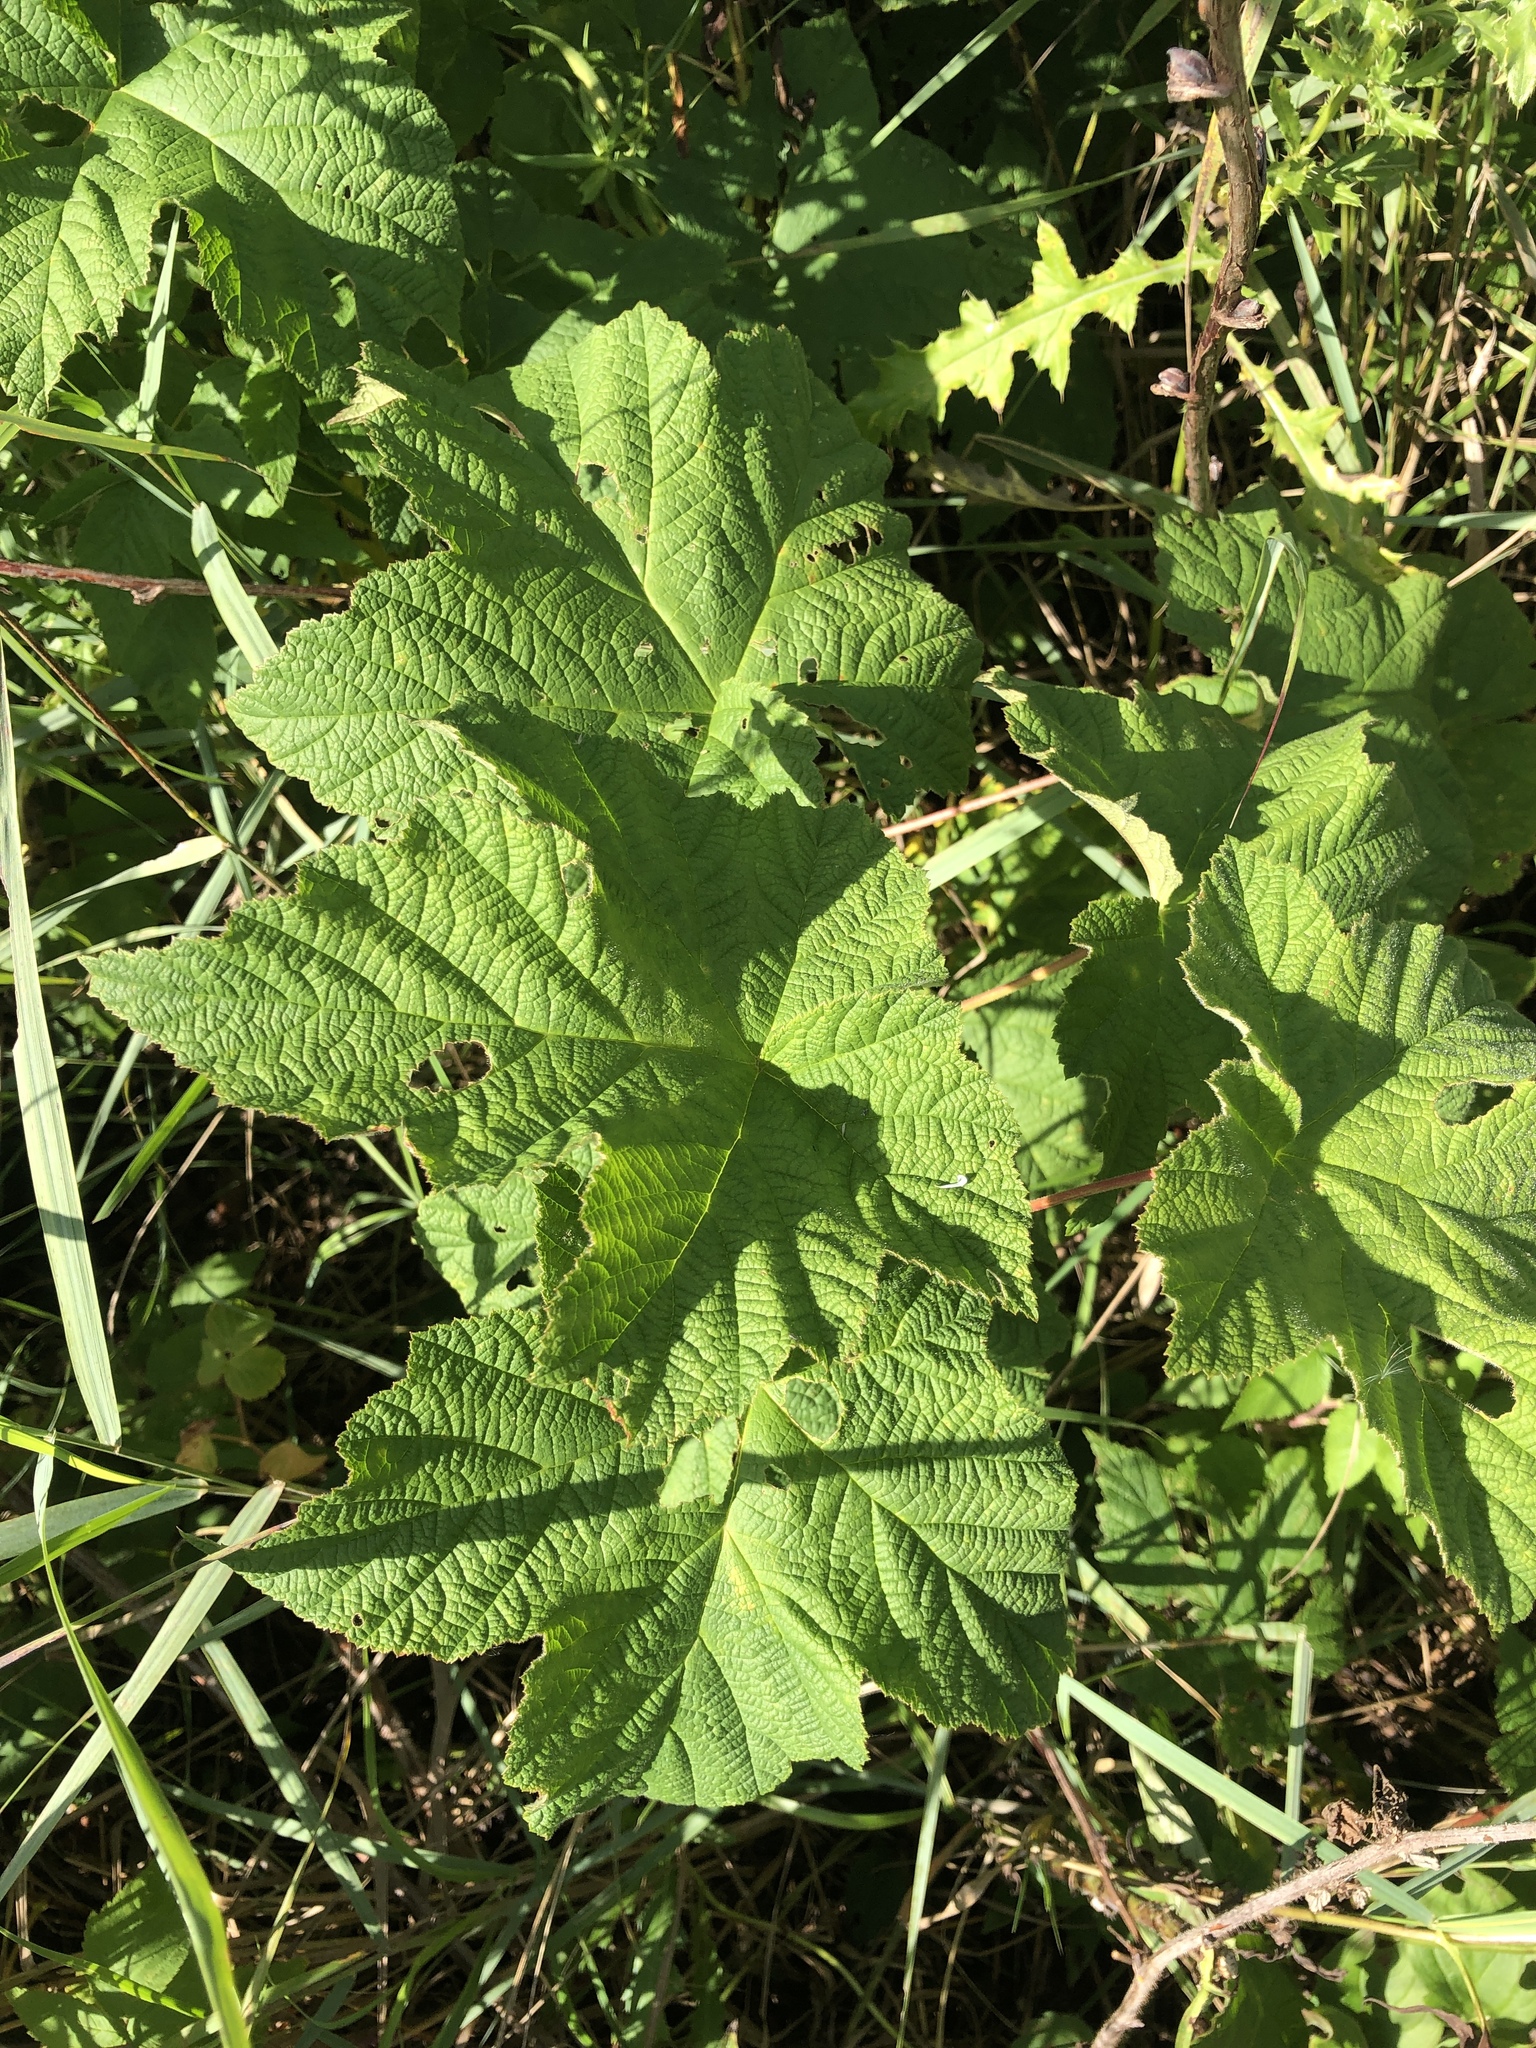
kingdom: Plantae
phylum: Tracheophyta
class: Magnoliopsida
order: Rosales
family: Rosaceae
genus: Rubus
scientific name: Rubus parviflorus
